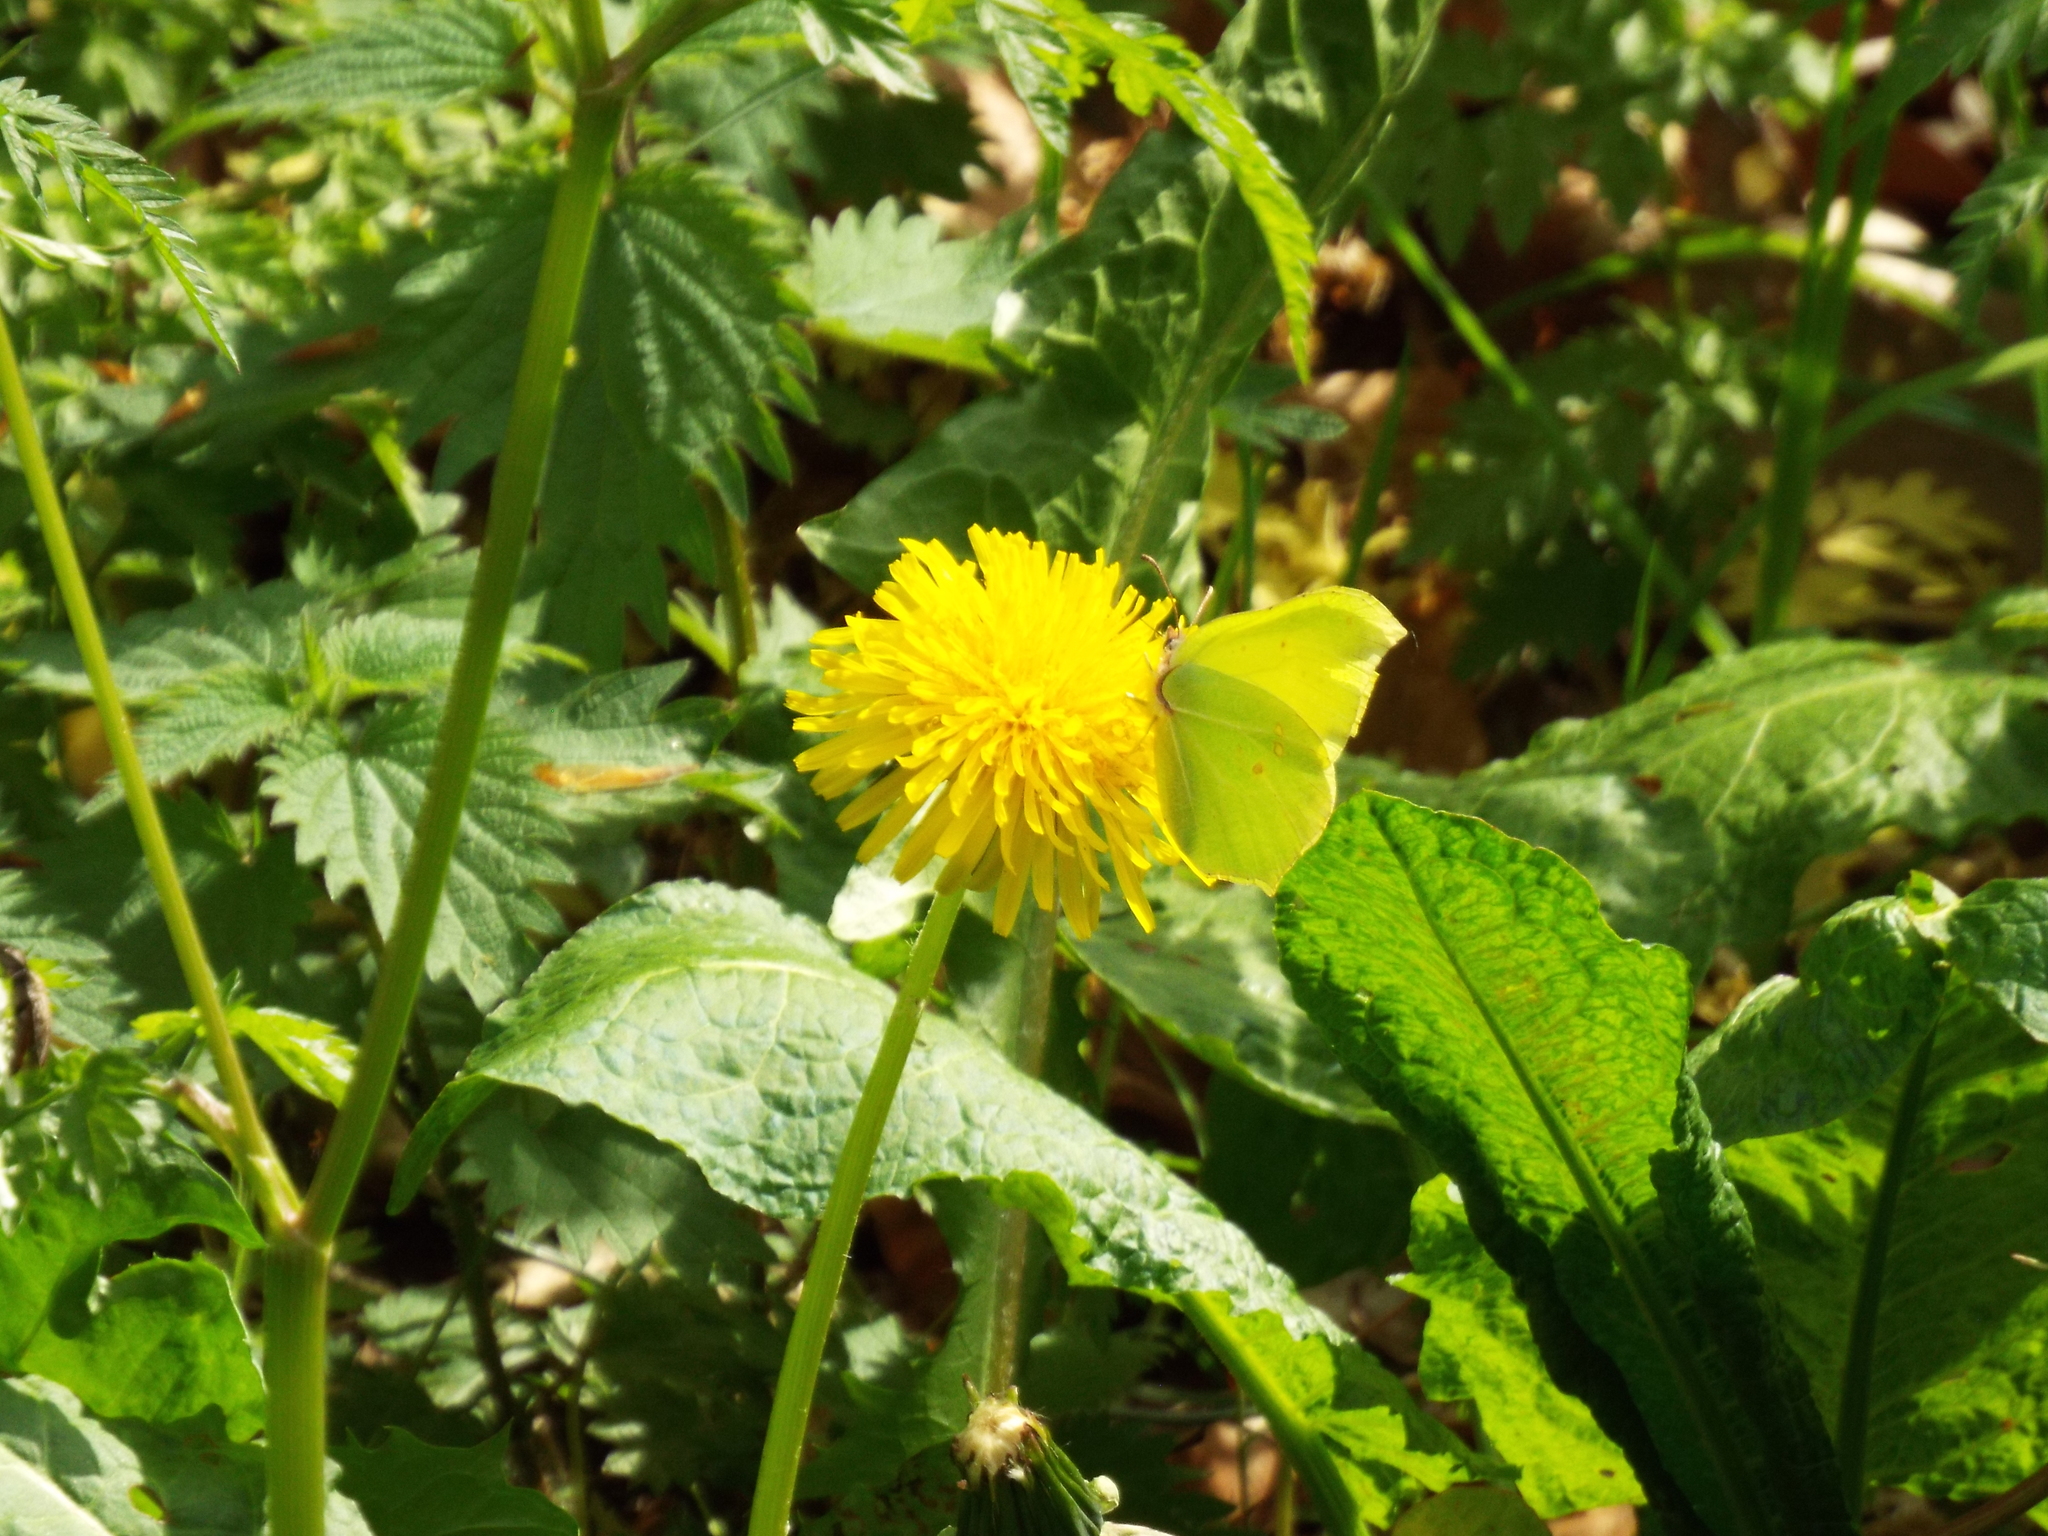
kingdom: Animalia
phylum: Arthropoda
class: Insecta
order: Lepidoptera
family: Pieridae
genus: Gonepteryx
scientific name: Gonepteryx rhamni
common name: Brimstone
